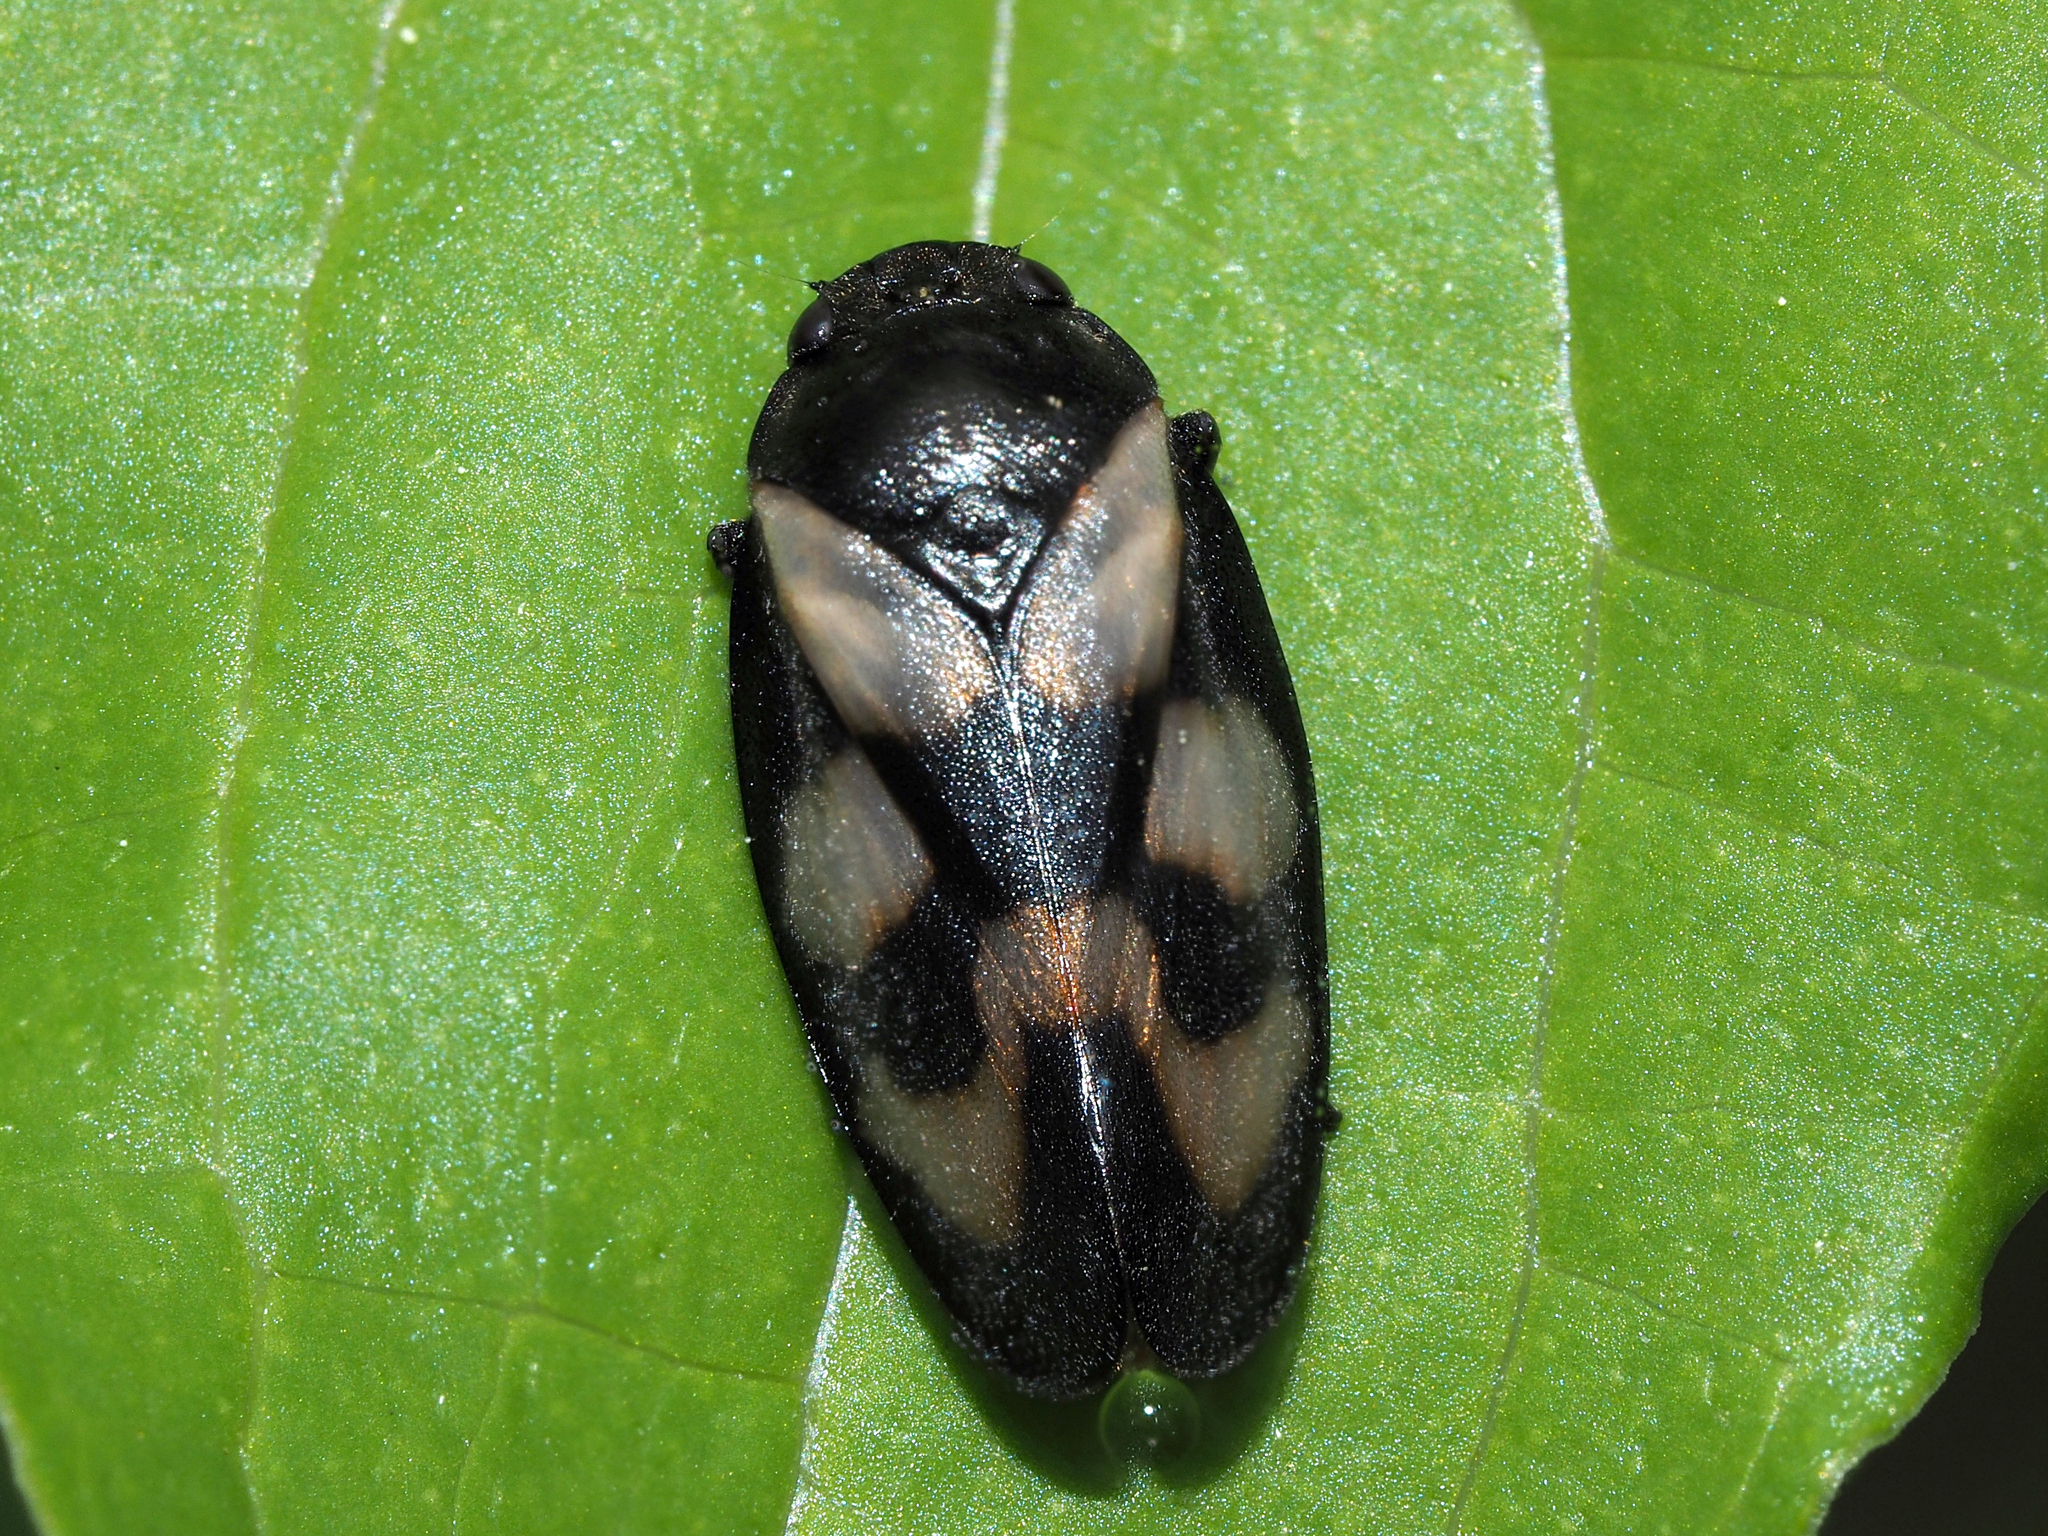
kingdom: Animalia
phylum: Arthropoda
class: Insecta
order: Hemiptera
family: Cercopidae
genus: Cercopis
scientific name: Cercopis vulnerata
